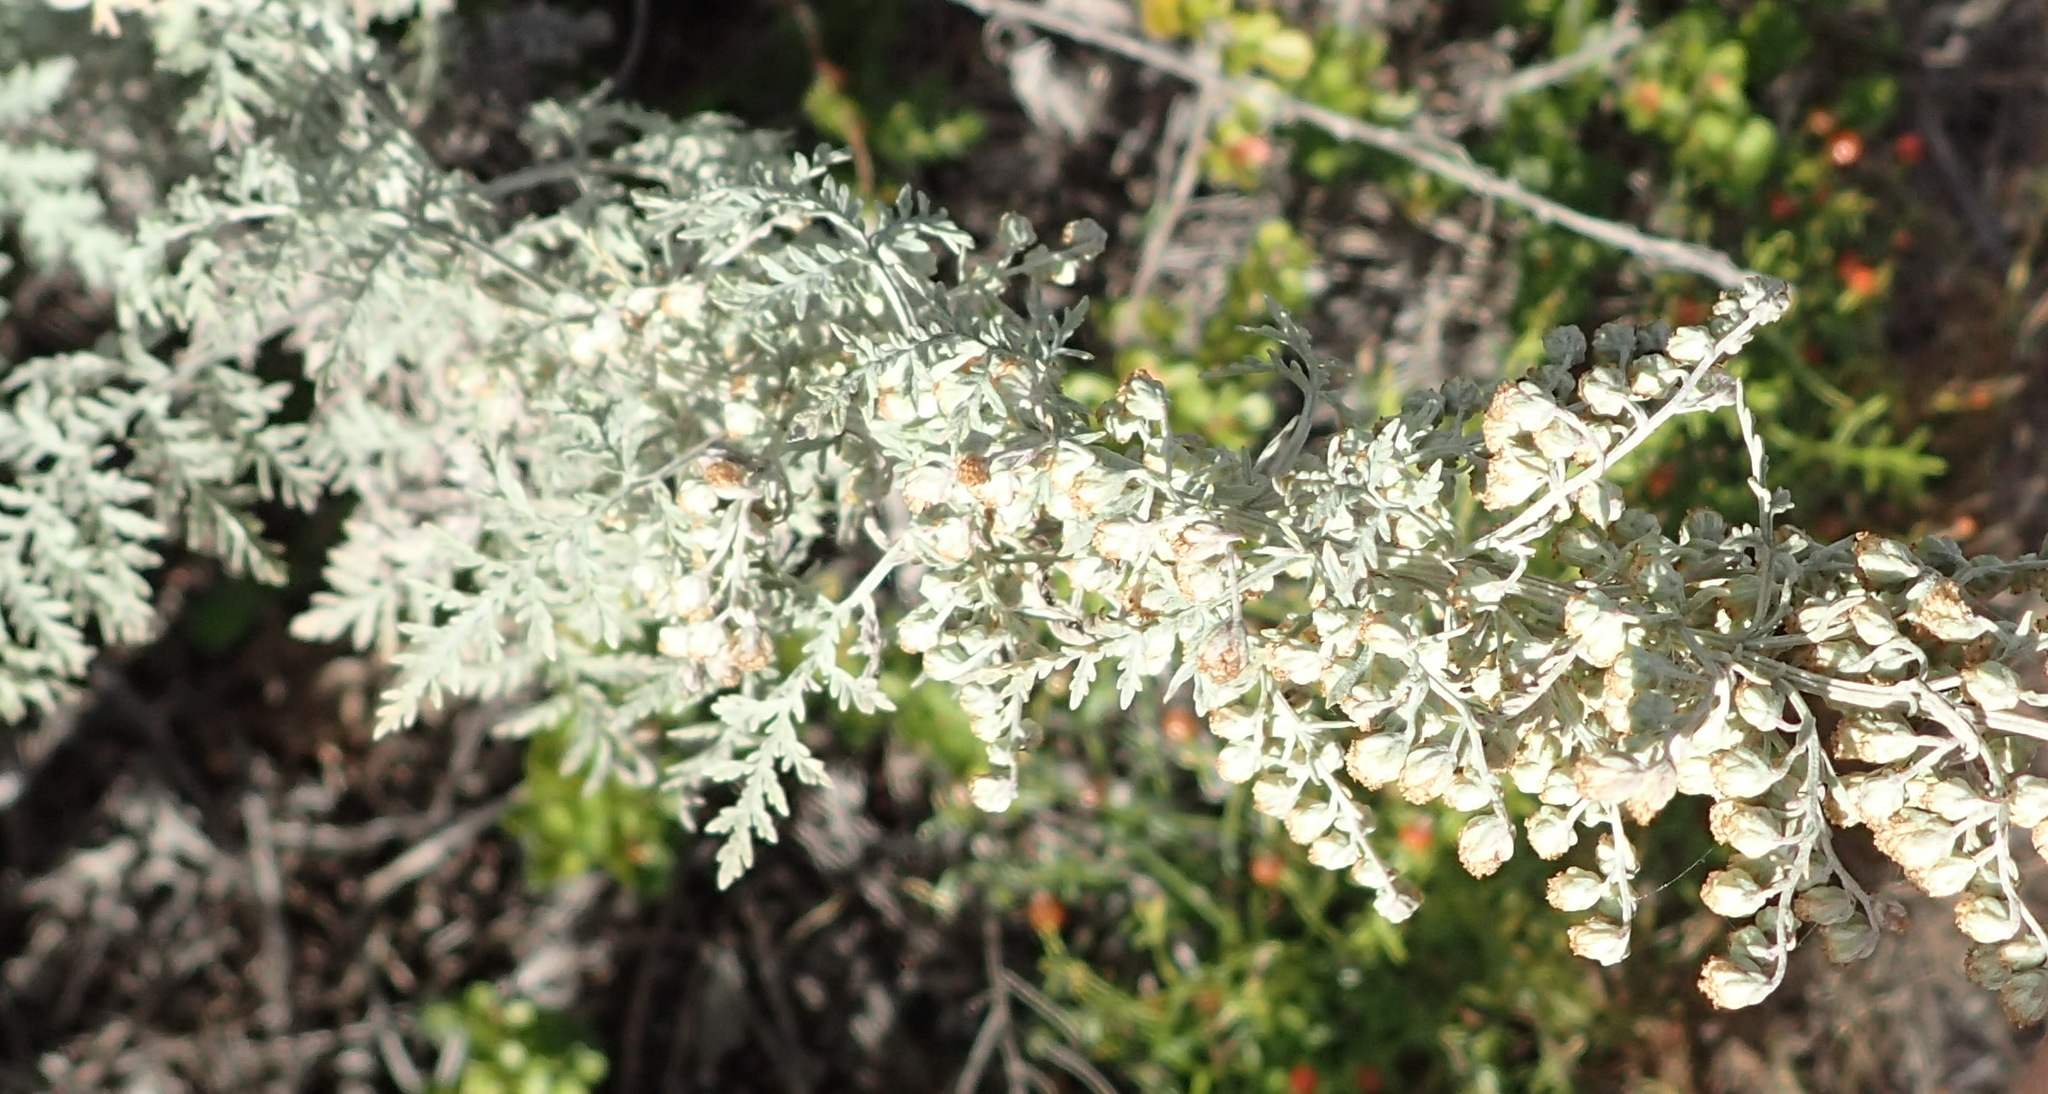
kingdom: Plantae
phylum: Tracheophyta
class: Magnoliopsida
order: Asterales
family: Asteraceae
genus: Artemisia
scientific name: Artemisia afra
